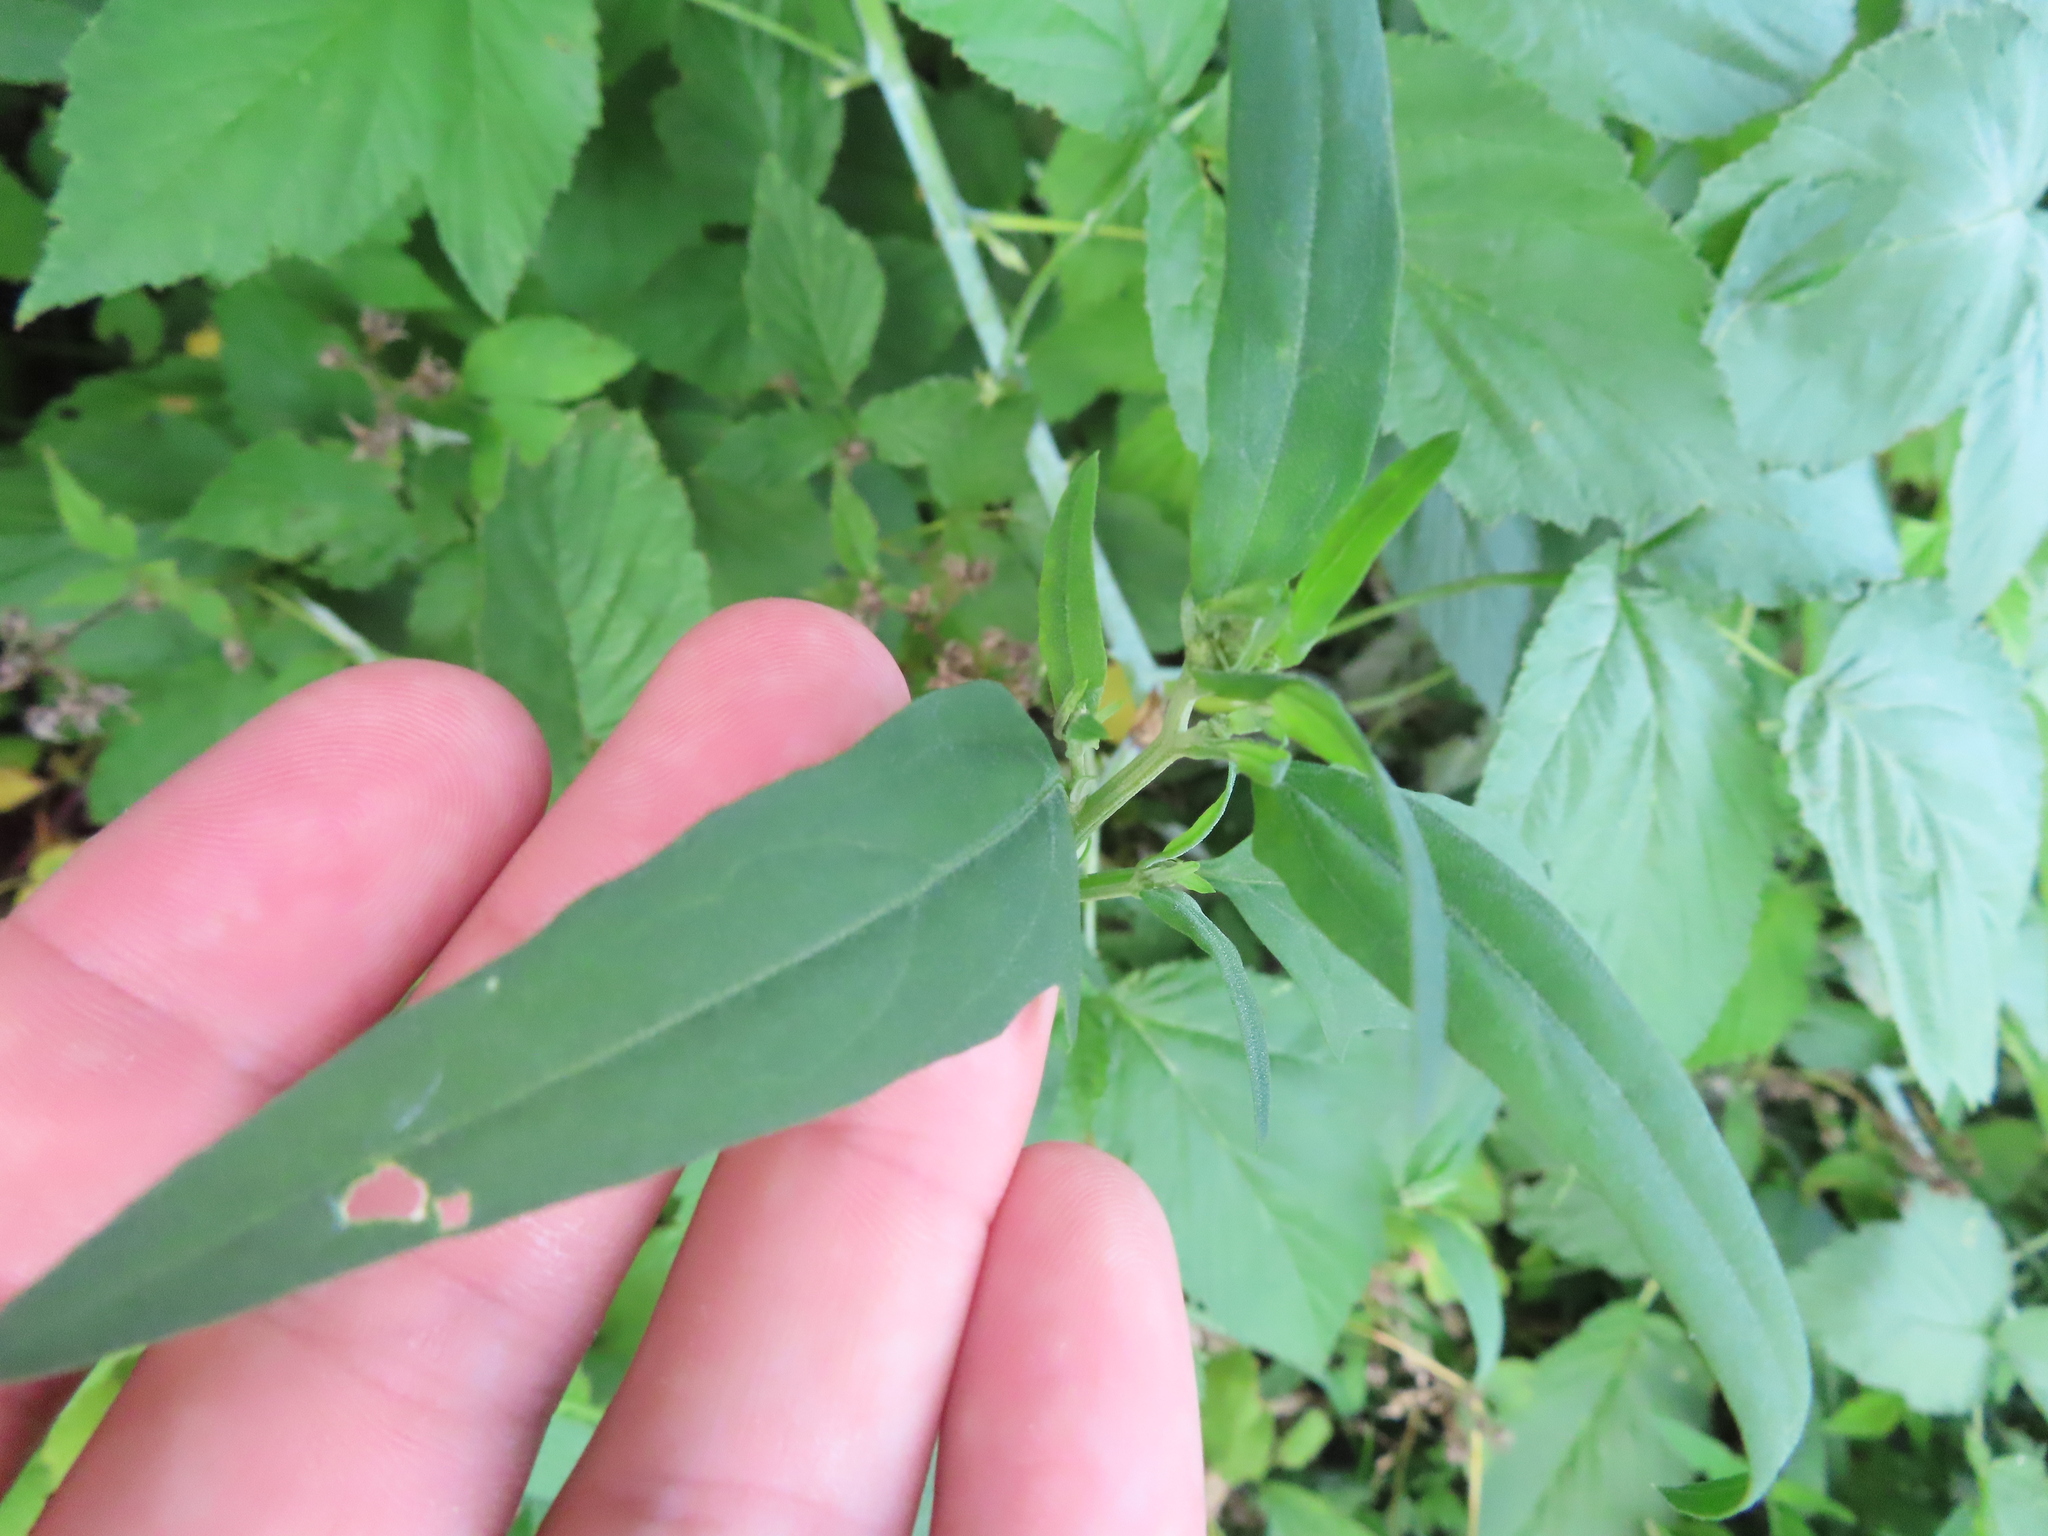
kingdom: Plantae
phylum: Tracheophyta
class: Magnoliopsida
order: Caryophyllales
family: Amaranthaceae
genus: Atriplex
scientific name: Atriplex patula
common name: Common orache
